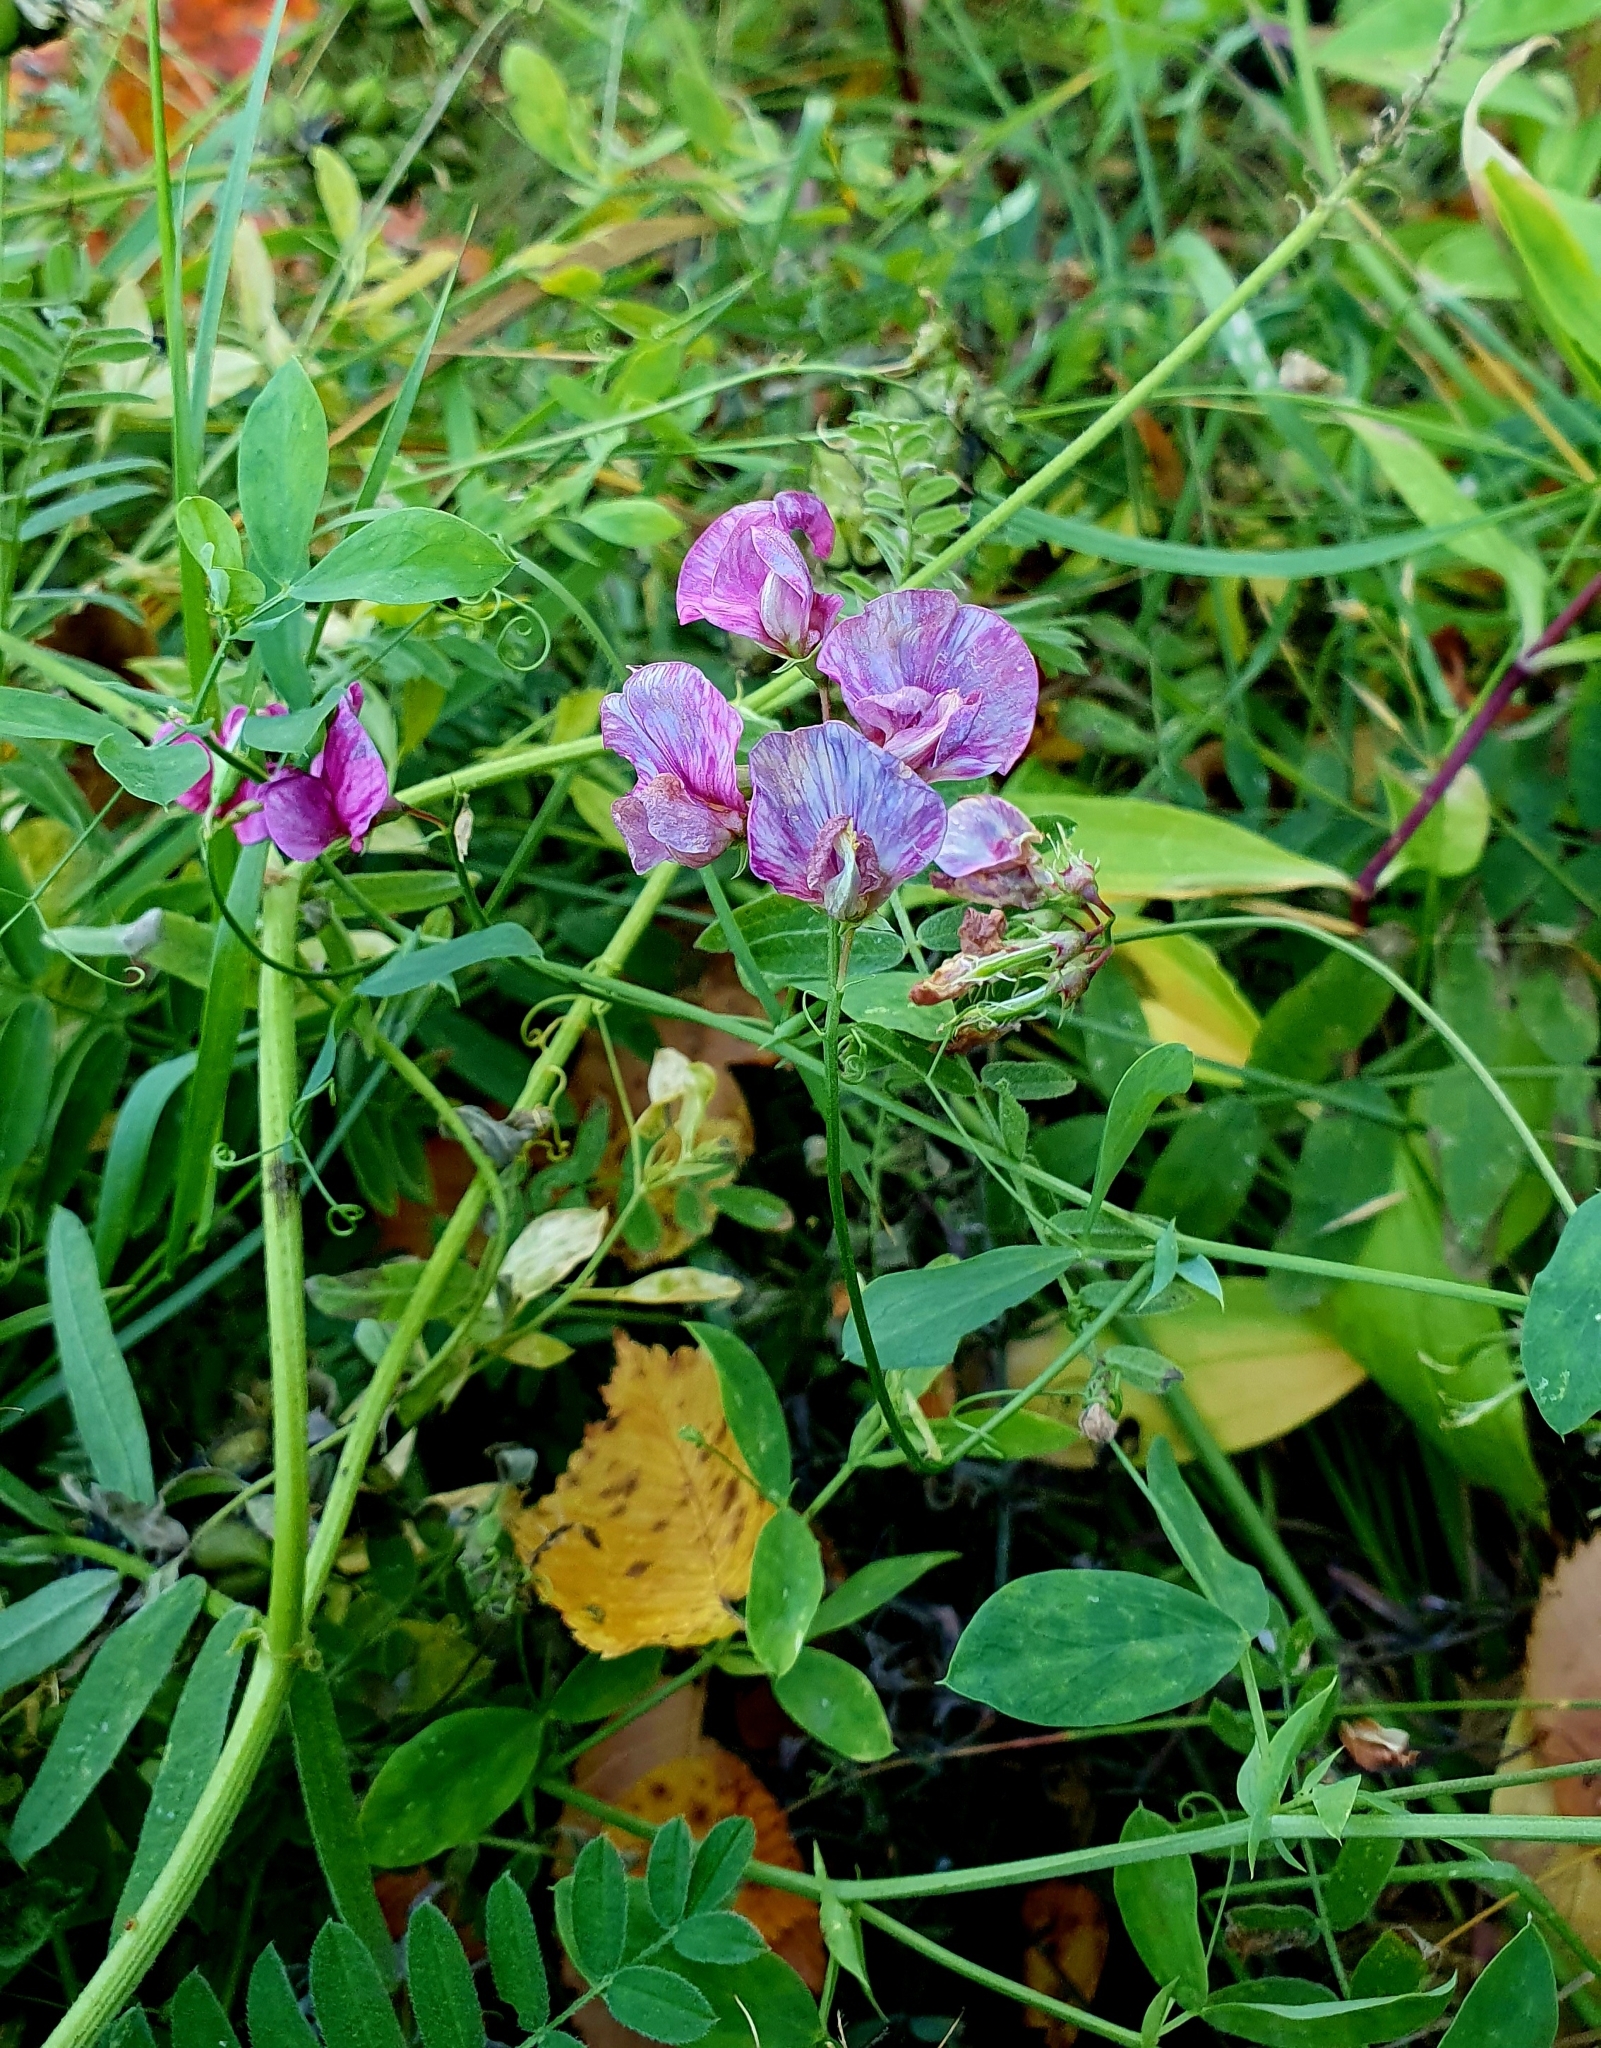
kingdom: Plantae
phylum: Tracheophyta
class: Magnoliopsida
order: Fabales
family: Fabaceae
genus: Lathyrus
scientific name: Lathyrus tuberosus
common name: Tuberous pea
